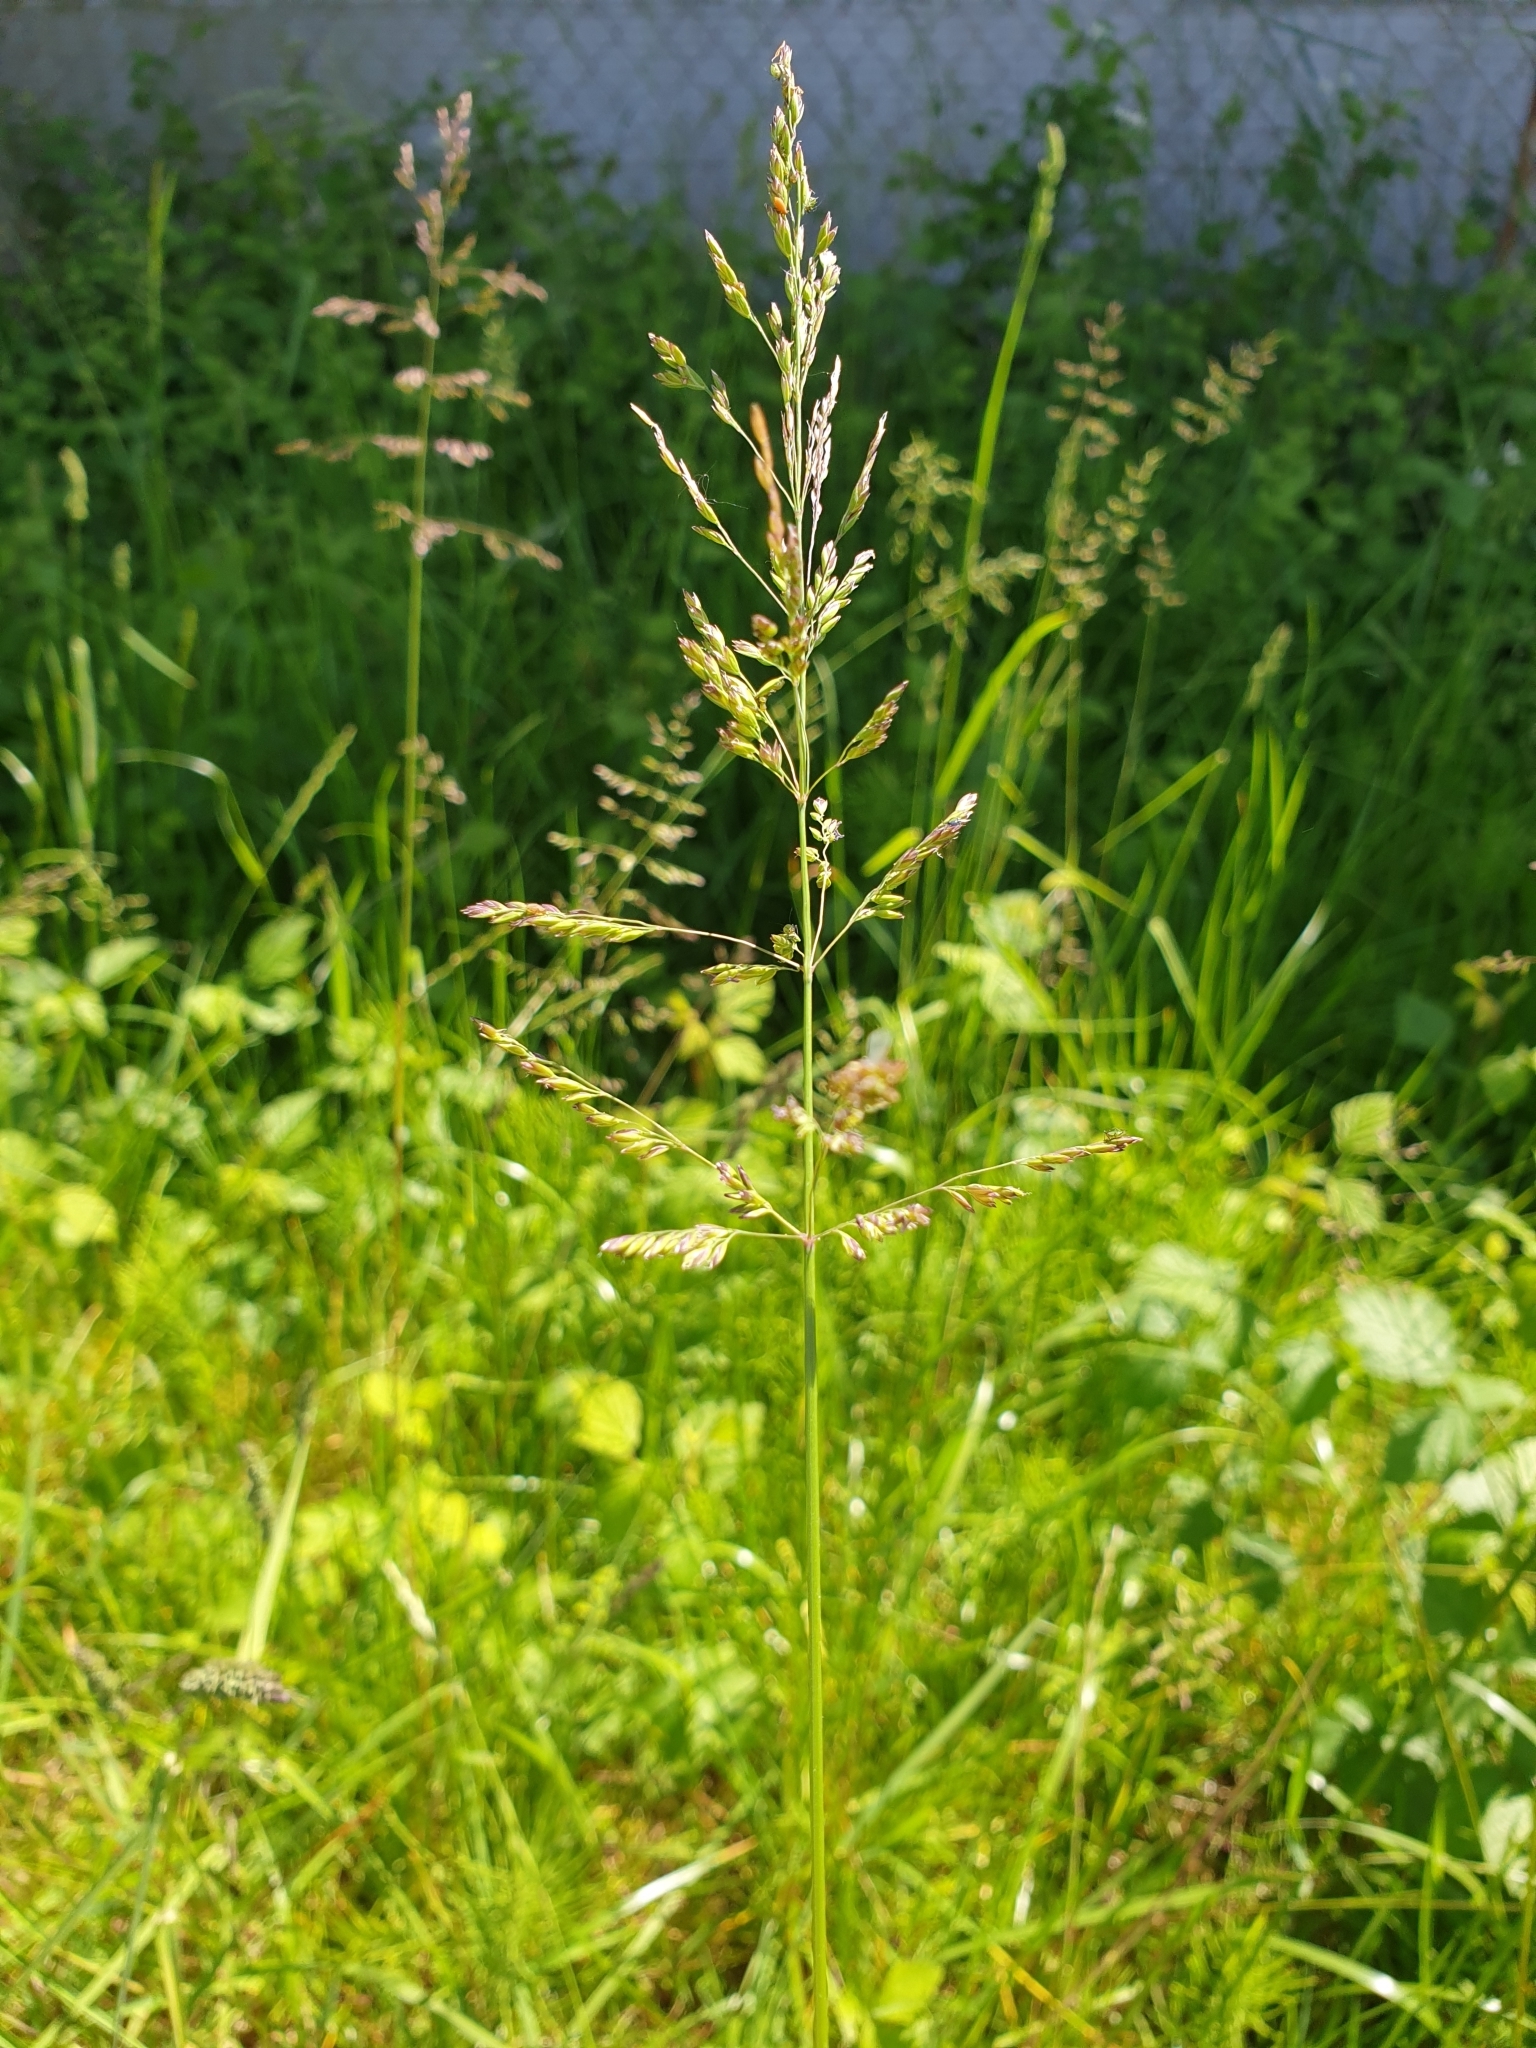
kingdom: Plantae
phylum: Tracheophyta
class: Liliopsida
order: Poales
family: Poaceae
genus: Poa
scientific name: Poa trivialis
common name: Rough bluegrass
